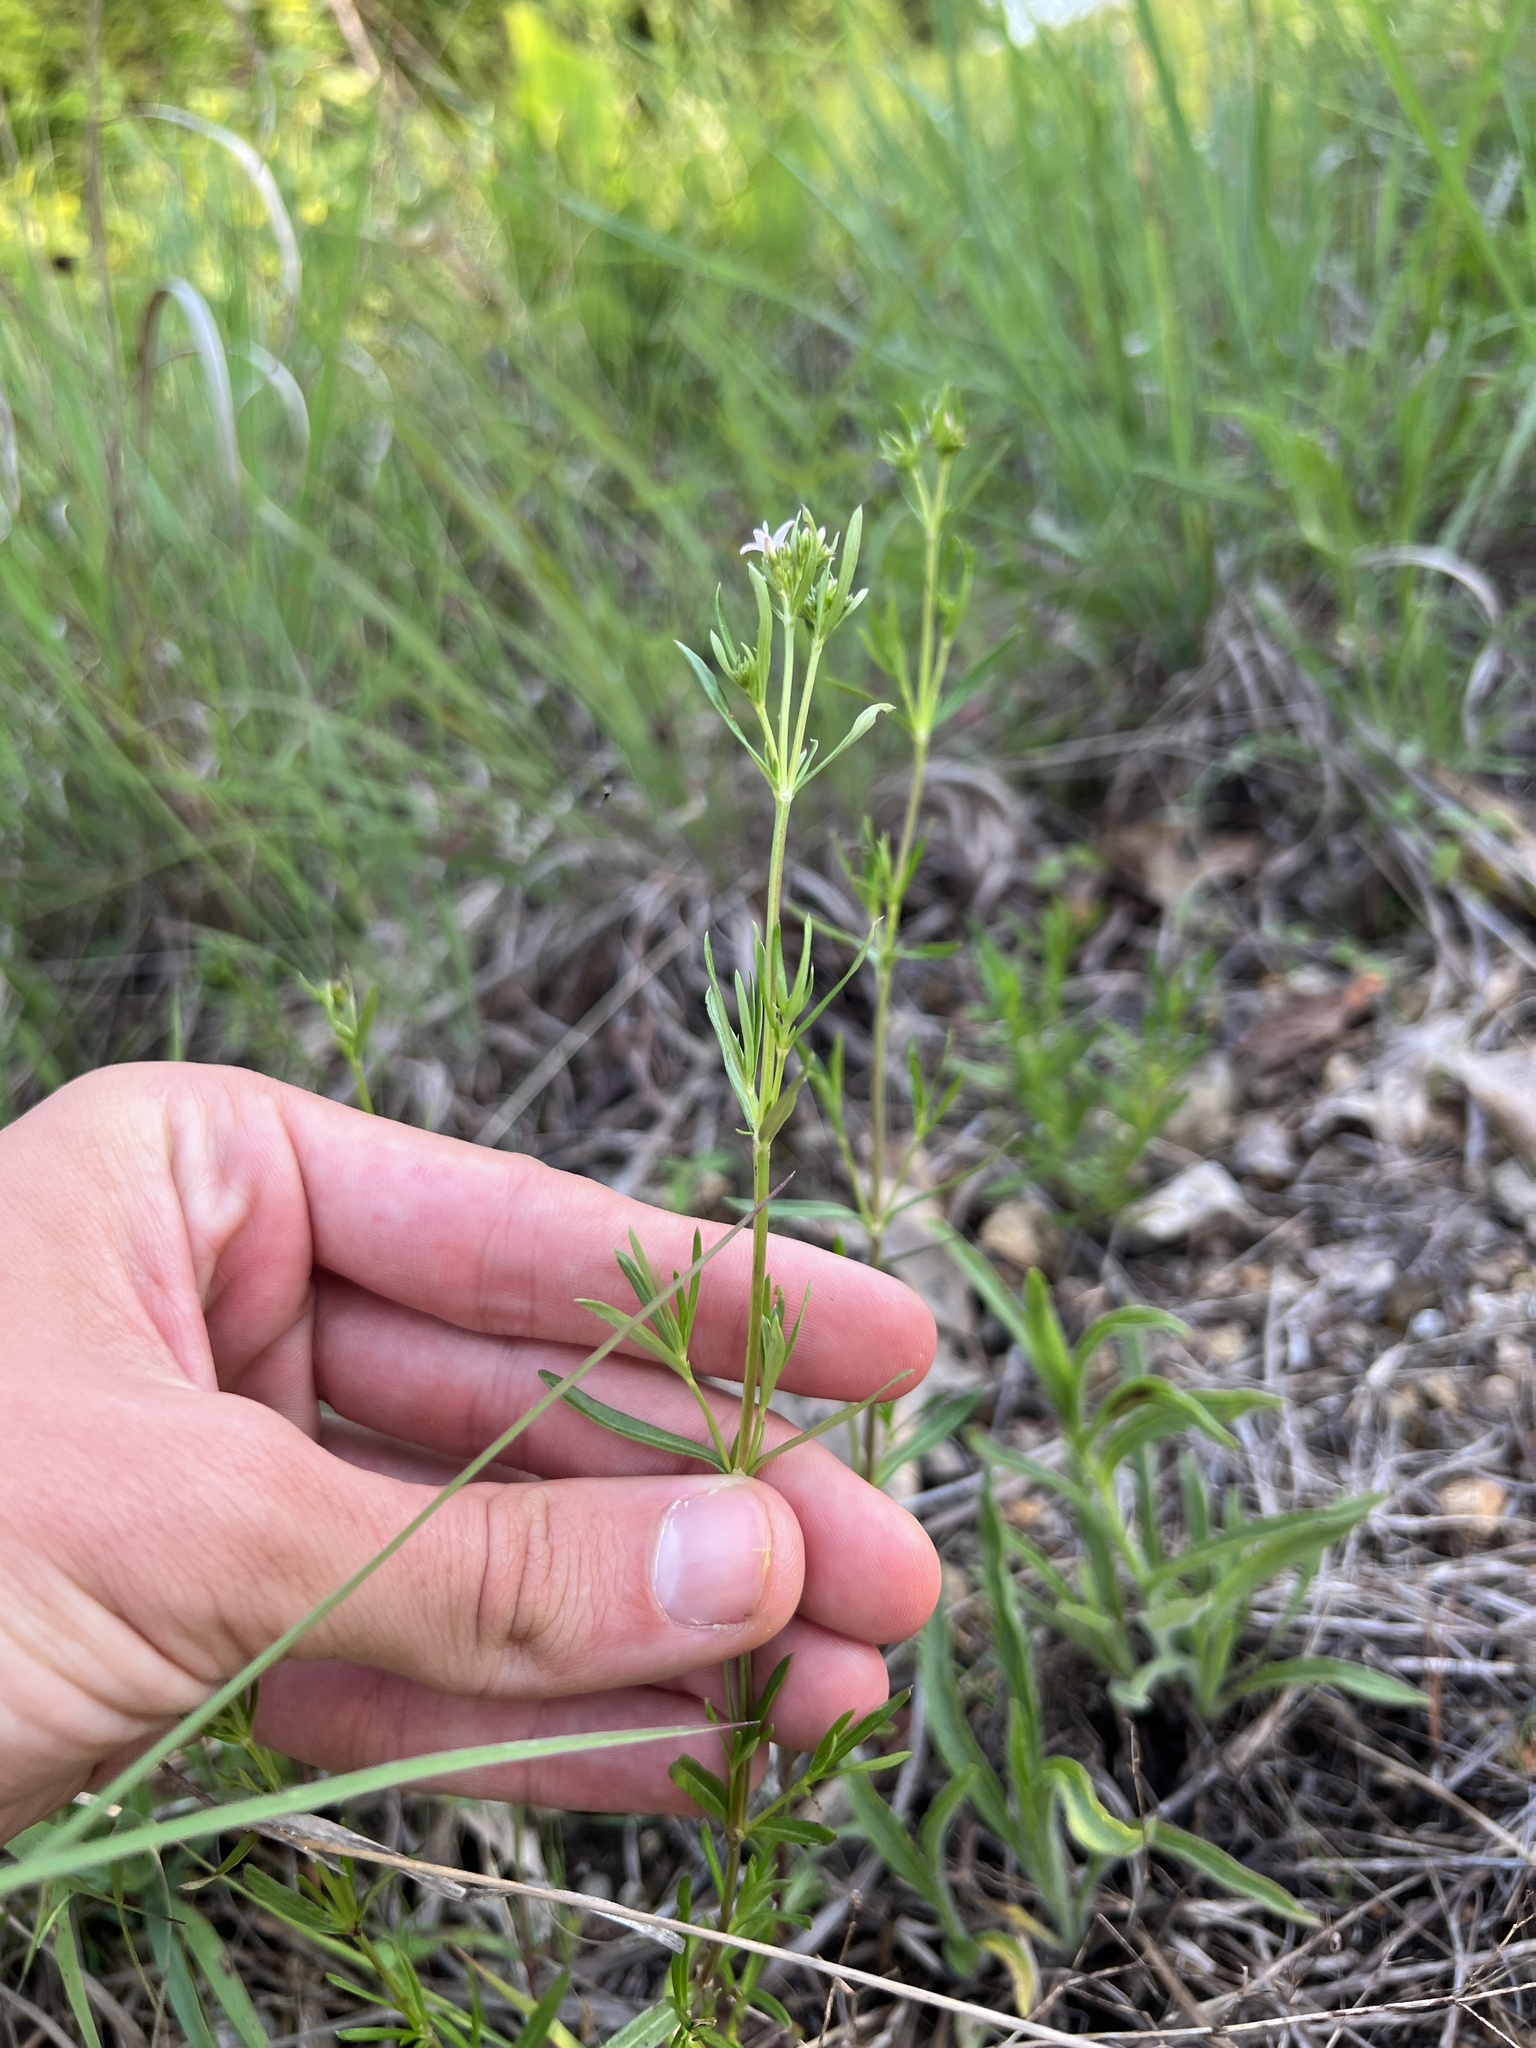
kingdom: Plantae
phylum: Tracheophyta
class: Magnoliopsida
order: Gentianales
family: Rubiaceae
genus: Stenaria
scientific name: Stenaria nigricans
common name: Diamondflowers
